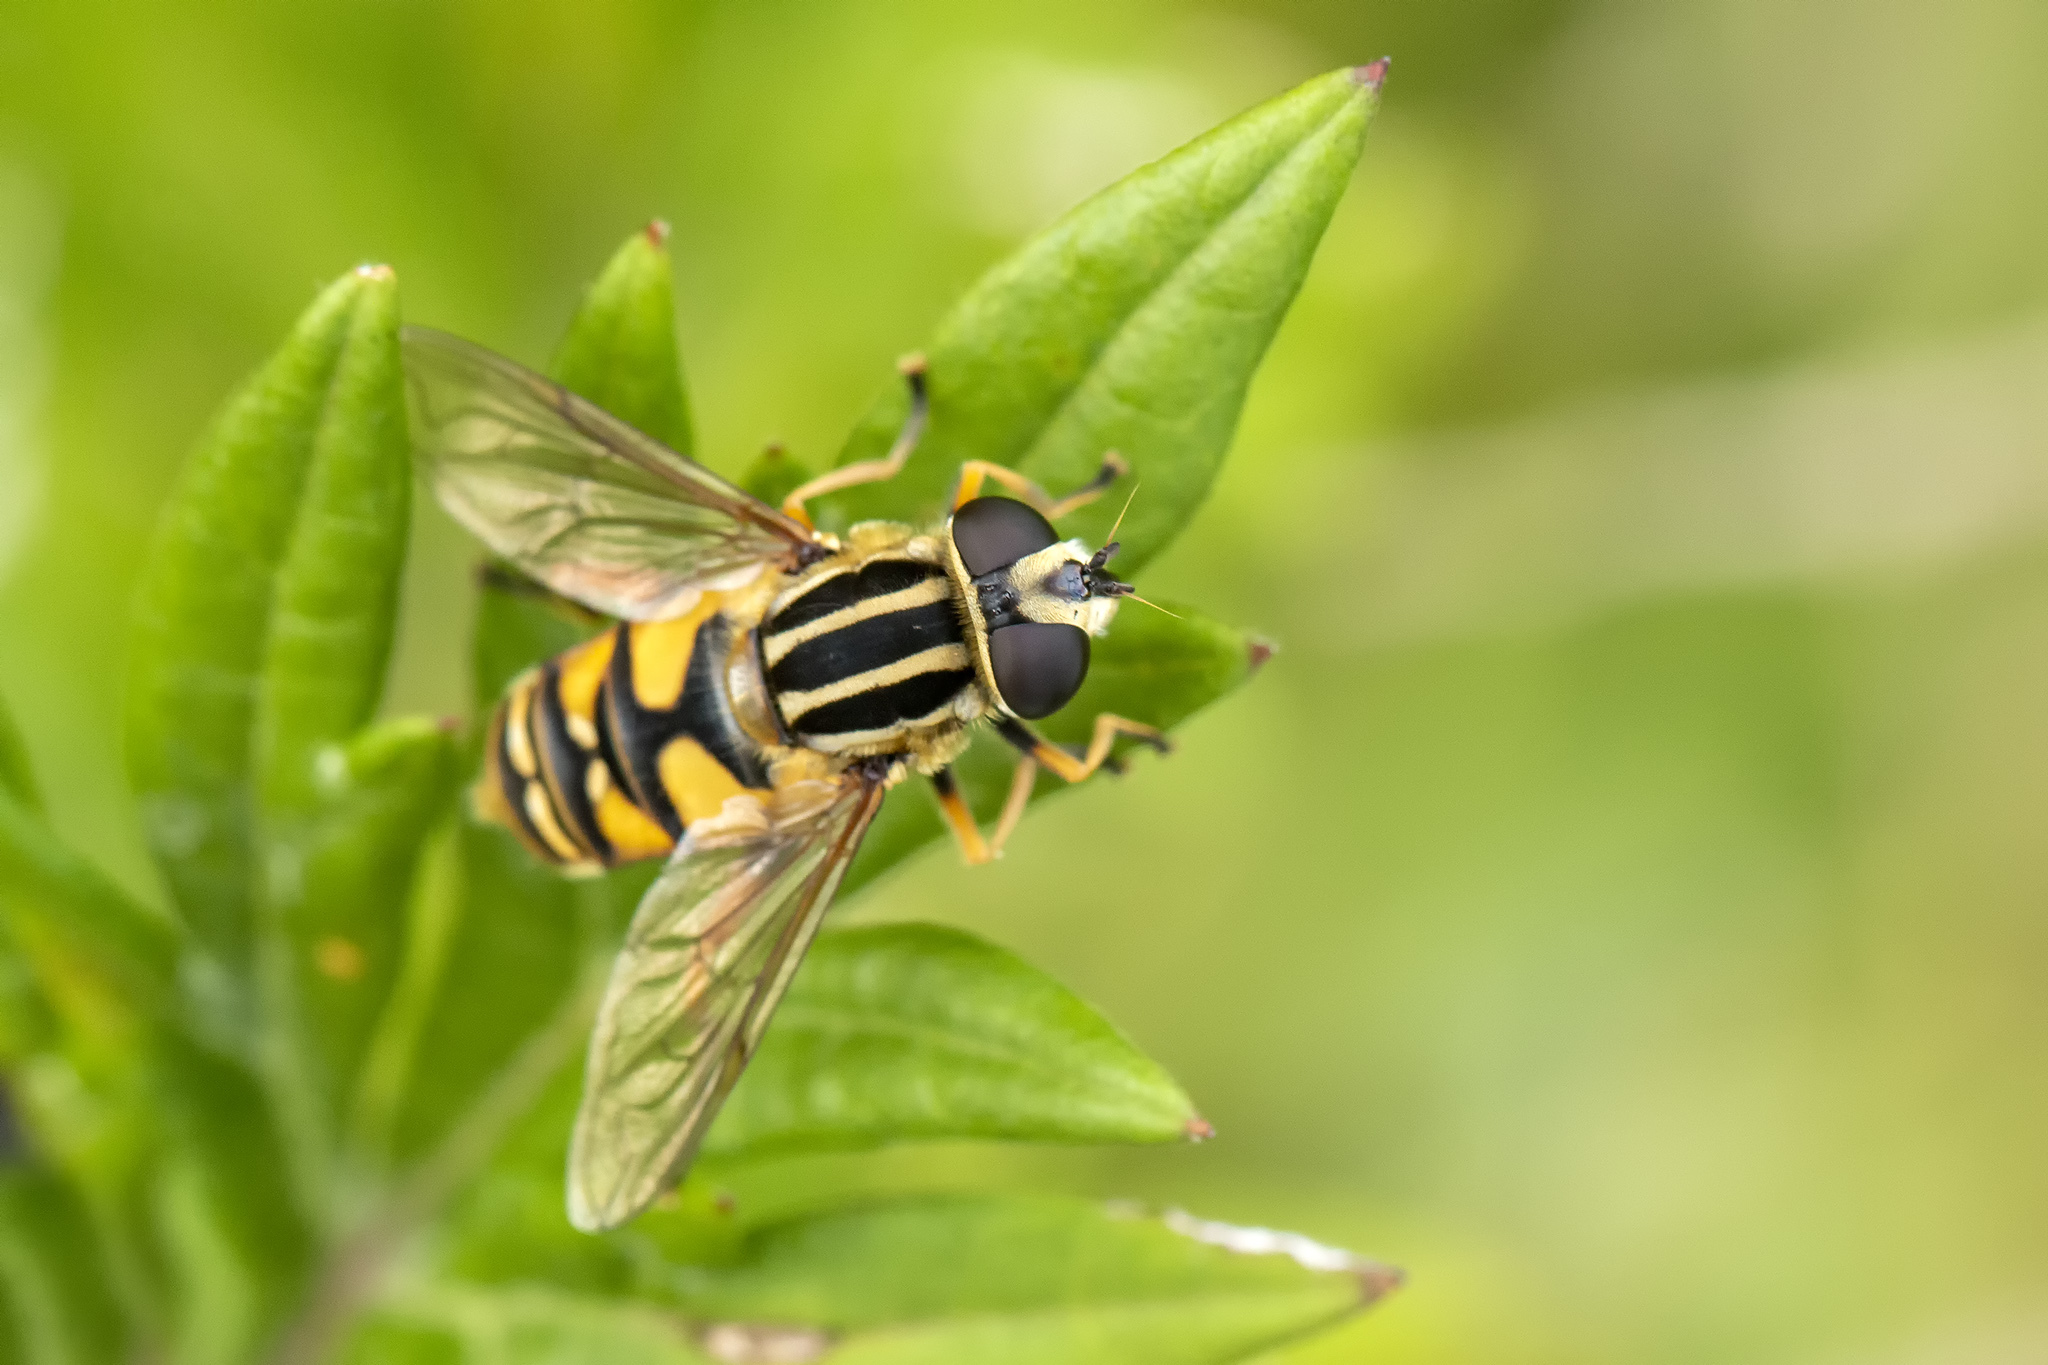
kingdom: Animalia
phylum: Arthropoda
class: Insecta
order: Diptera
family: Syrphidae
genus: Helophilus
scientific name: Helophilus pendulus
